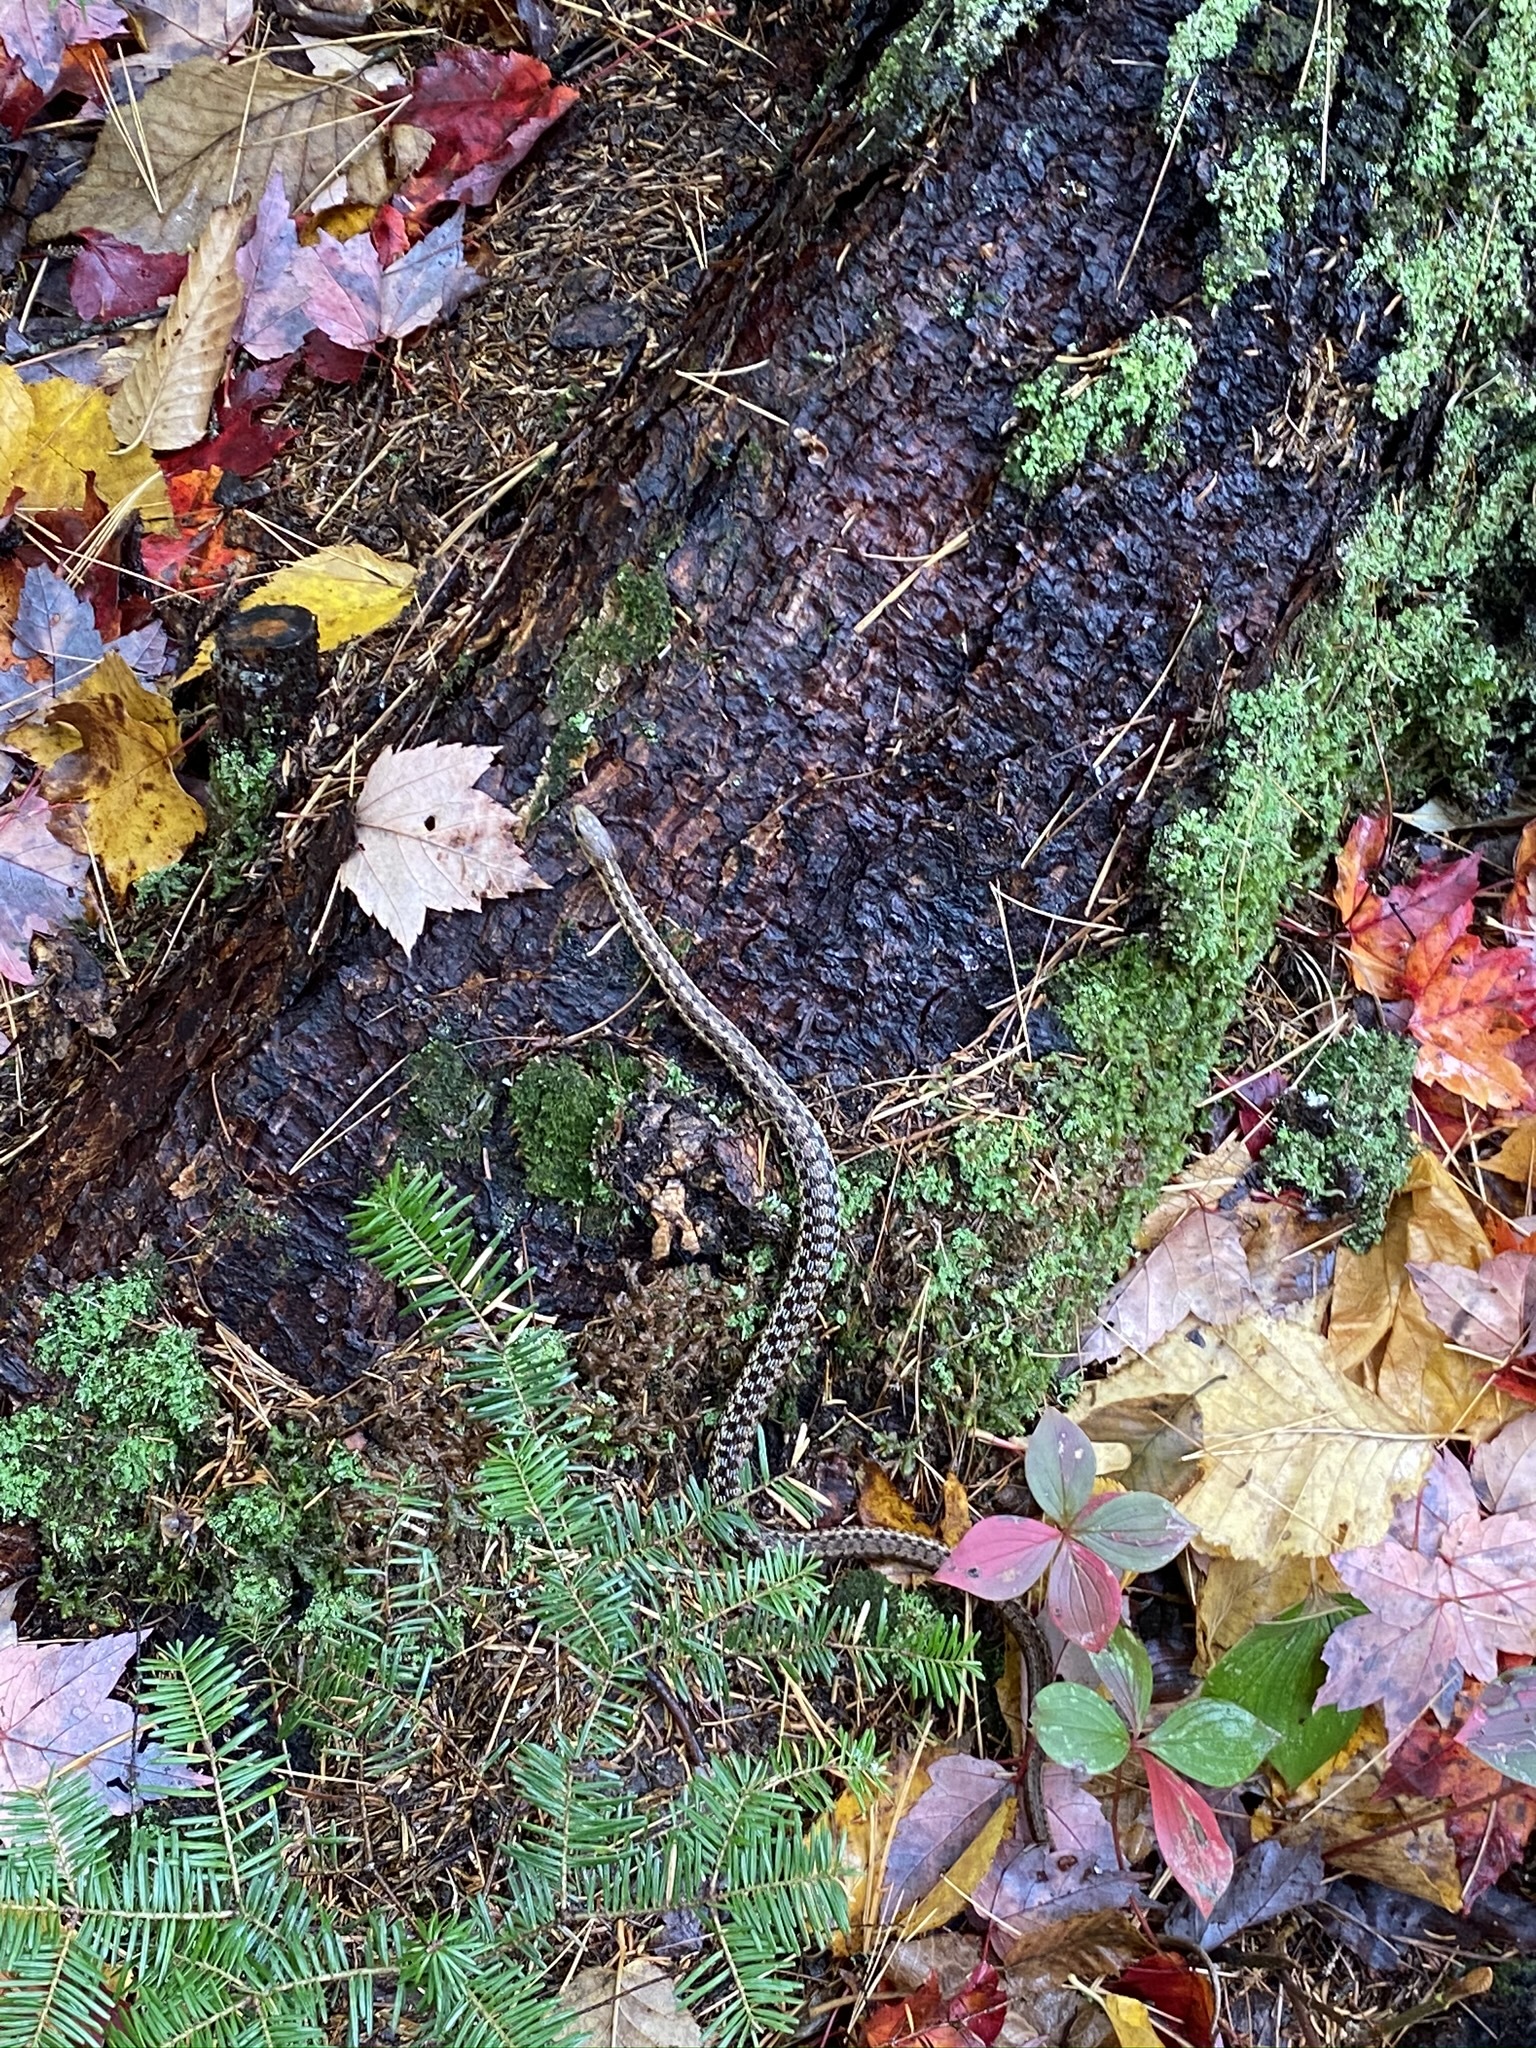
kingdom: Animalia
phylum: Chordata
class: Squamata
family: Colubridae
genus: Thamnophis
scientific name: Thamnophis sirtalis
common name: Common garter snake
